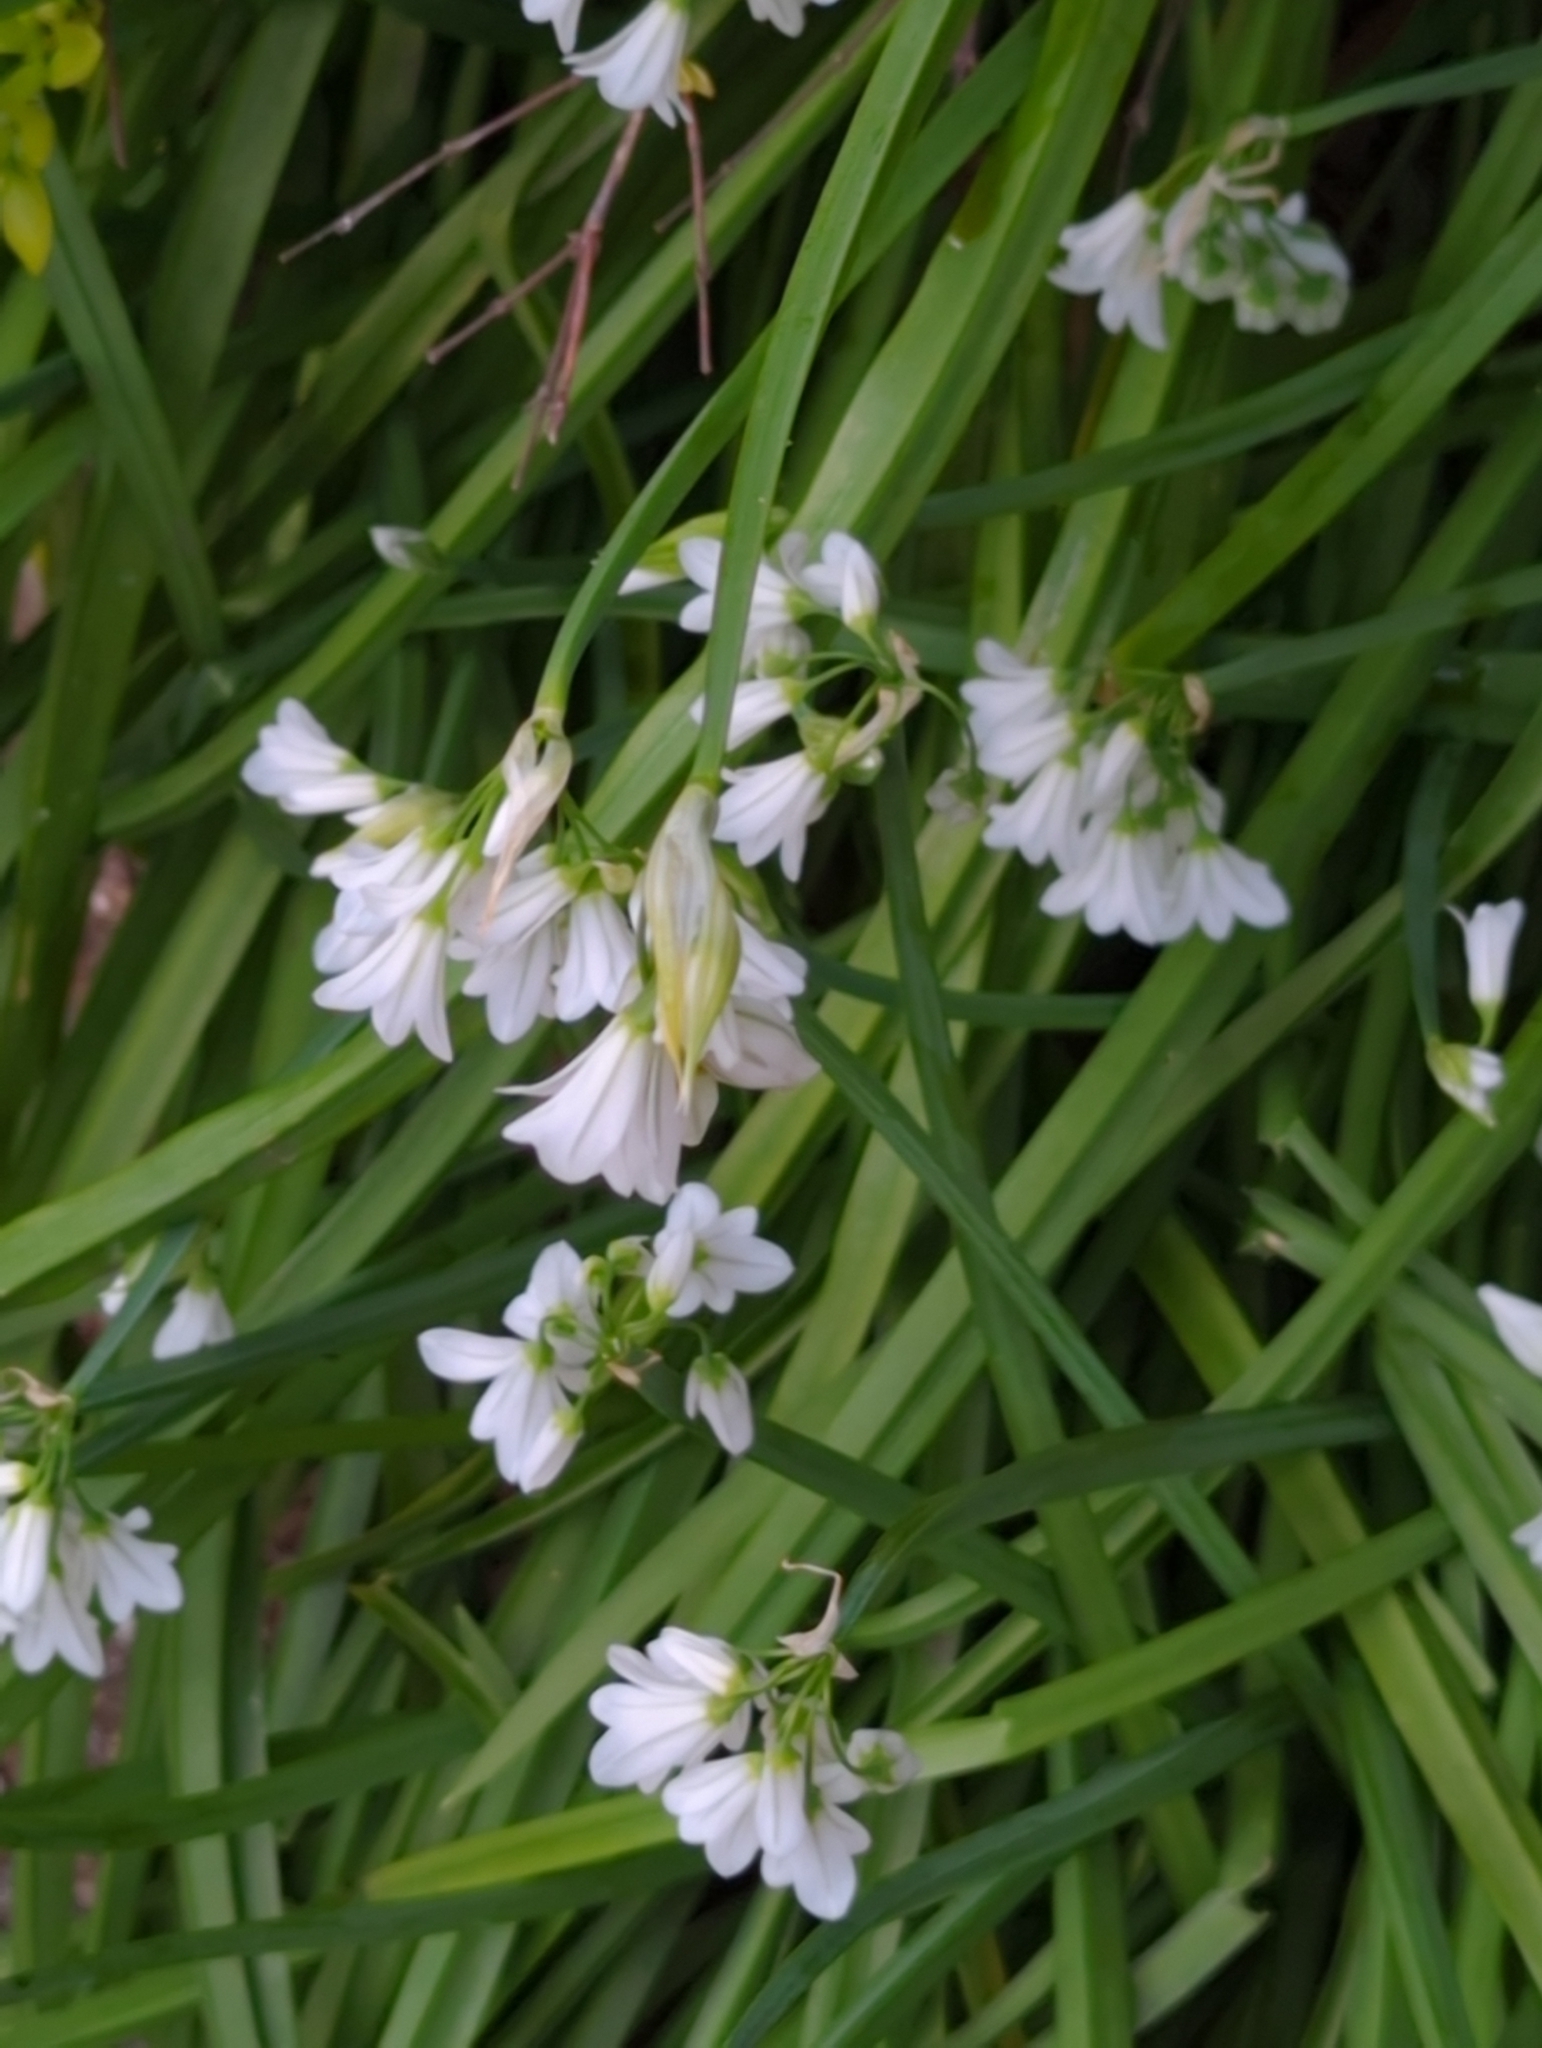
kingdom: Plantae
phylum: Tracheophyta
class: Liliopsida
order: Asparagales
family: Amaryllidaceae
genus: Allium
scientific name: Allium triquetrum
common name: Three-cornered garlic
